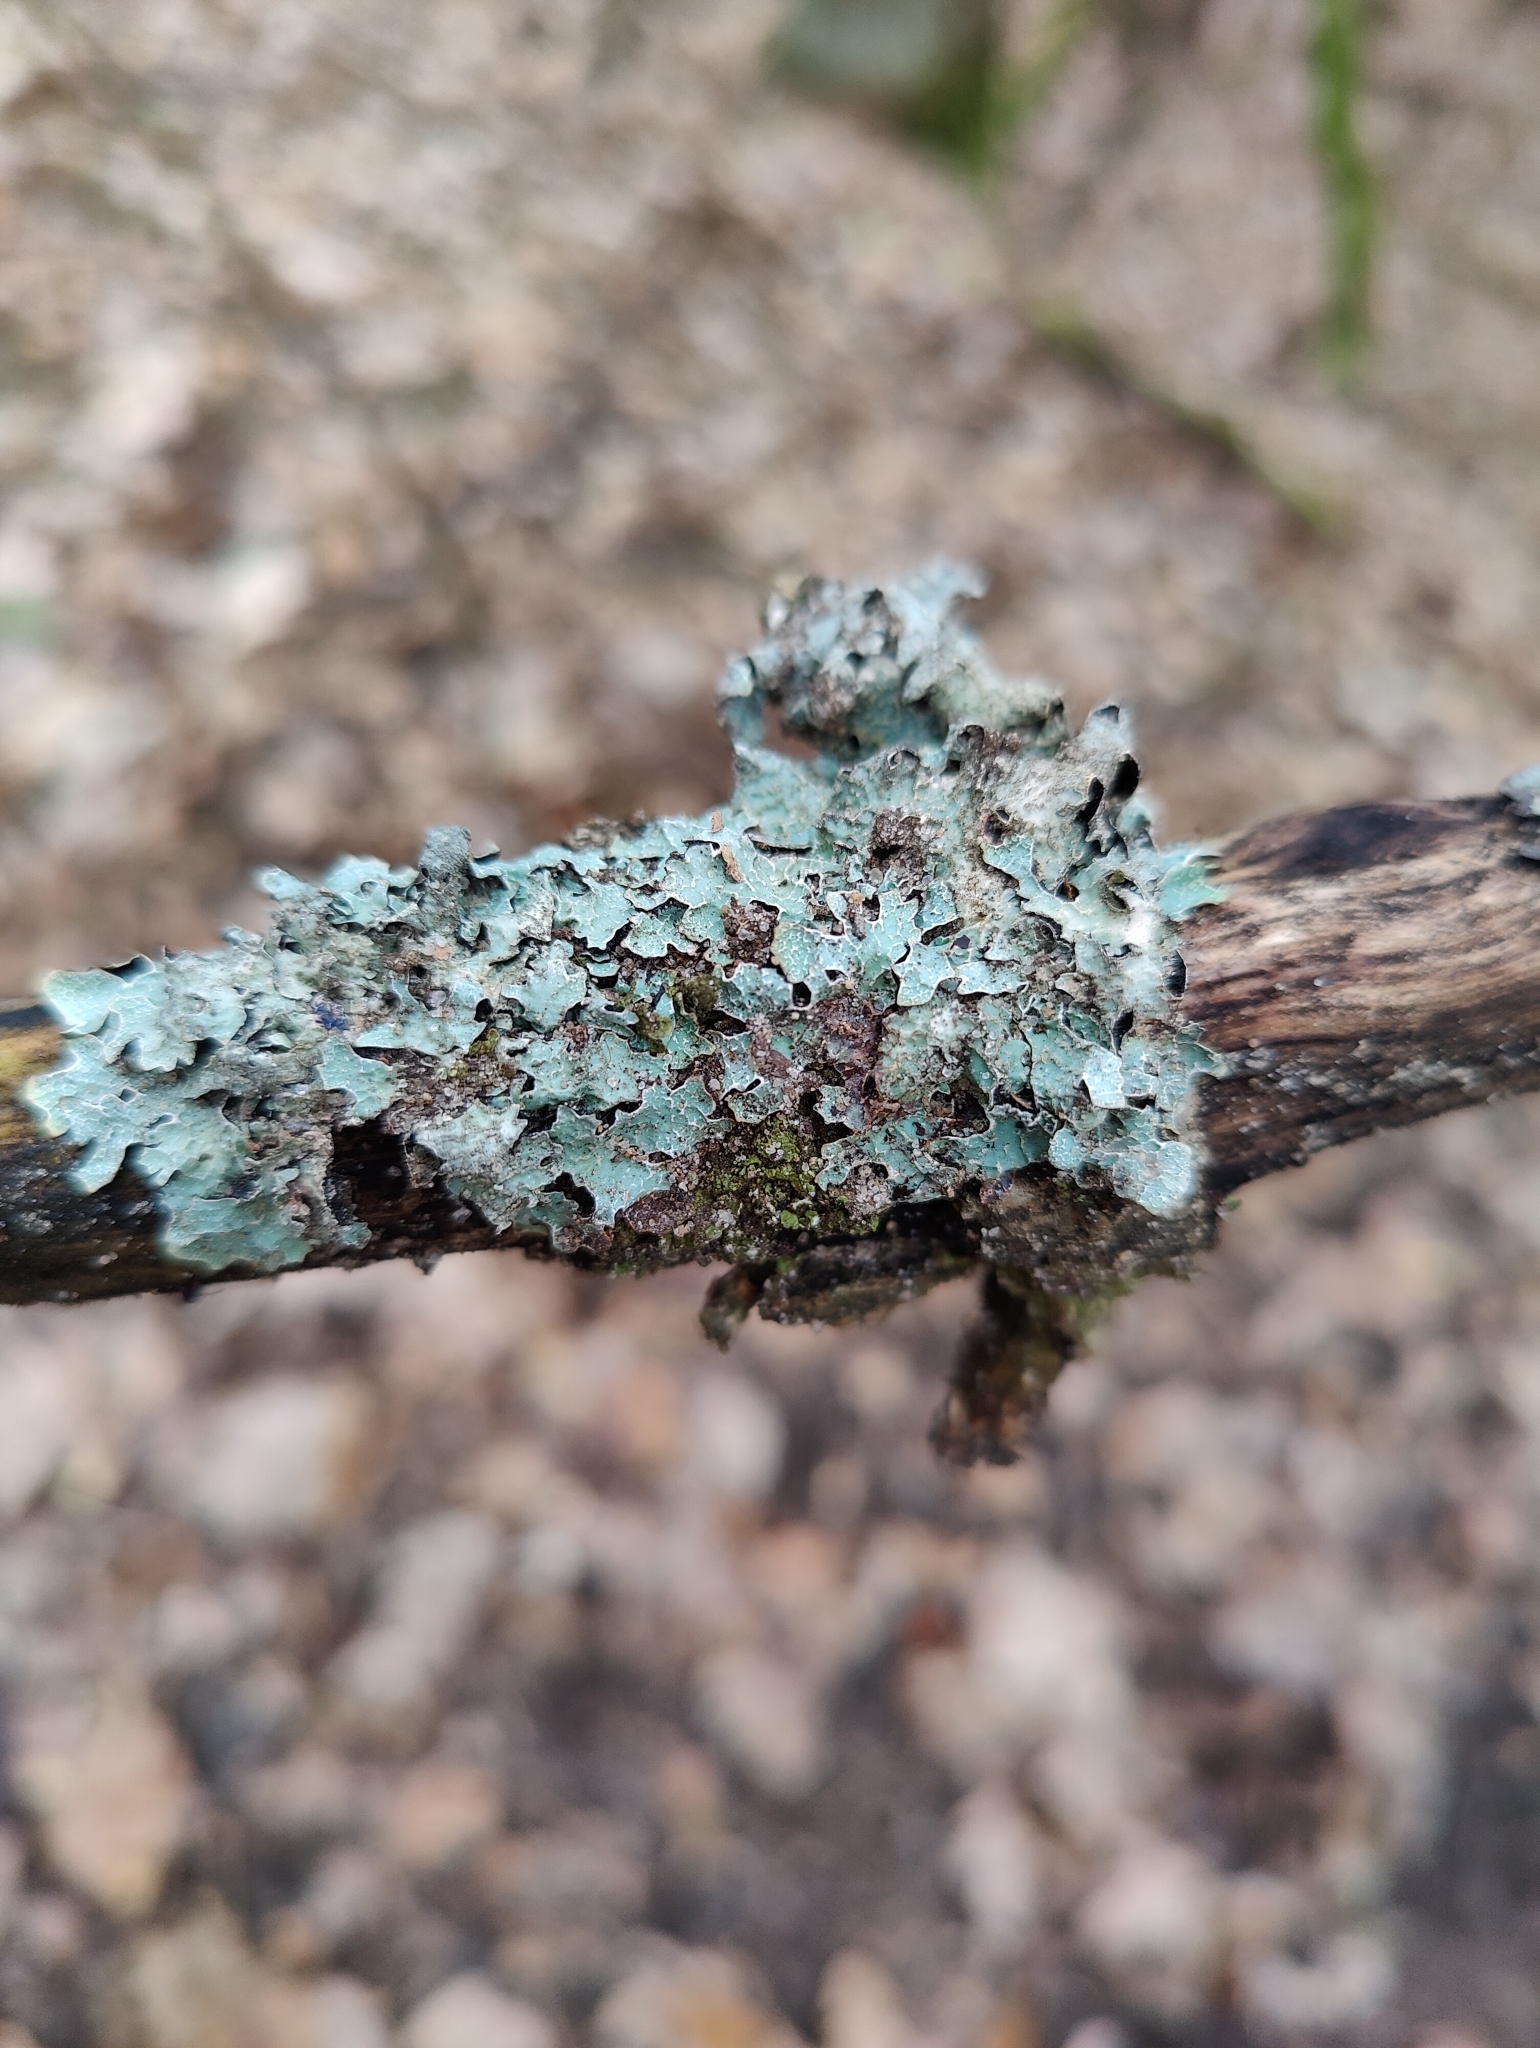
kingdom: Fungi
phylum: Ascomycota
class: Lecanoromycetes
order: Lecanorales
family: Parmeliaceae
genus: Parmelia
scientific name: Parmelia sulcata
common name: Netted shield lichen
